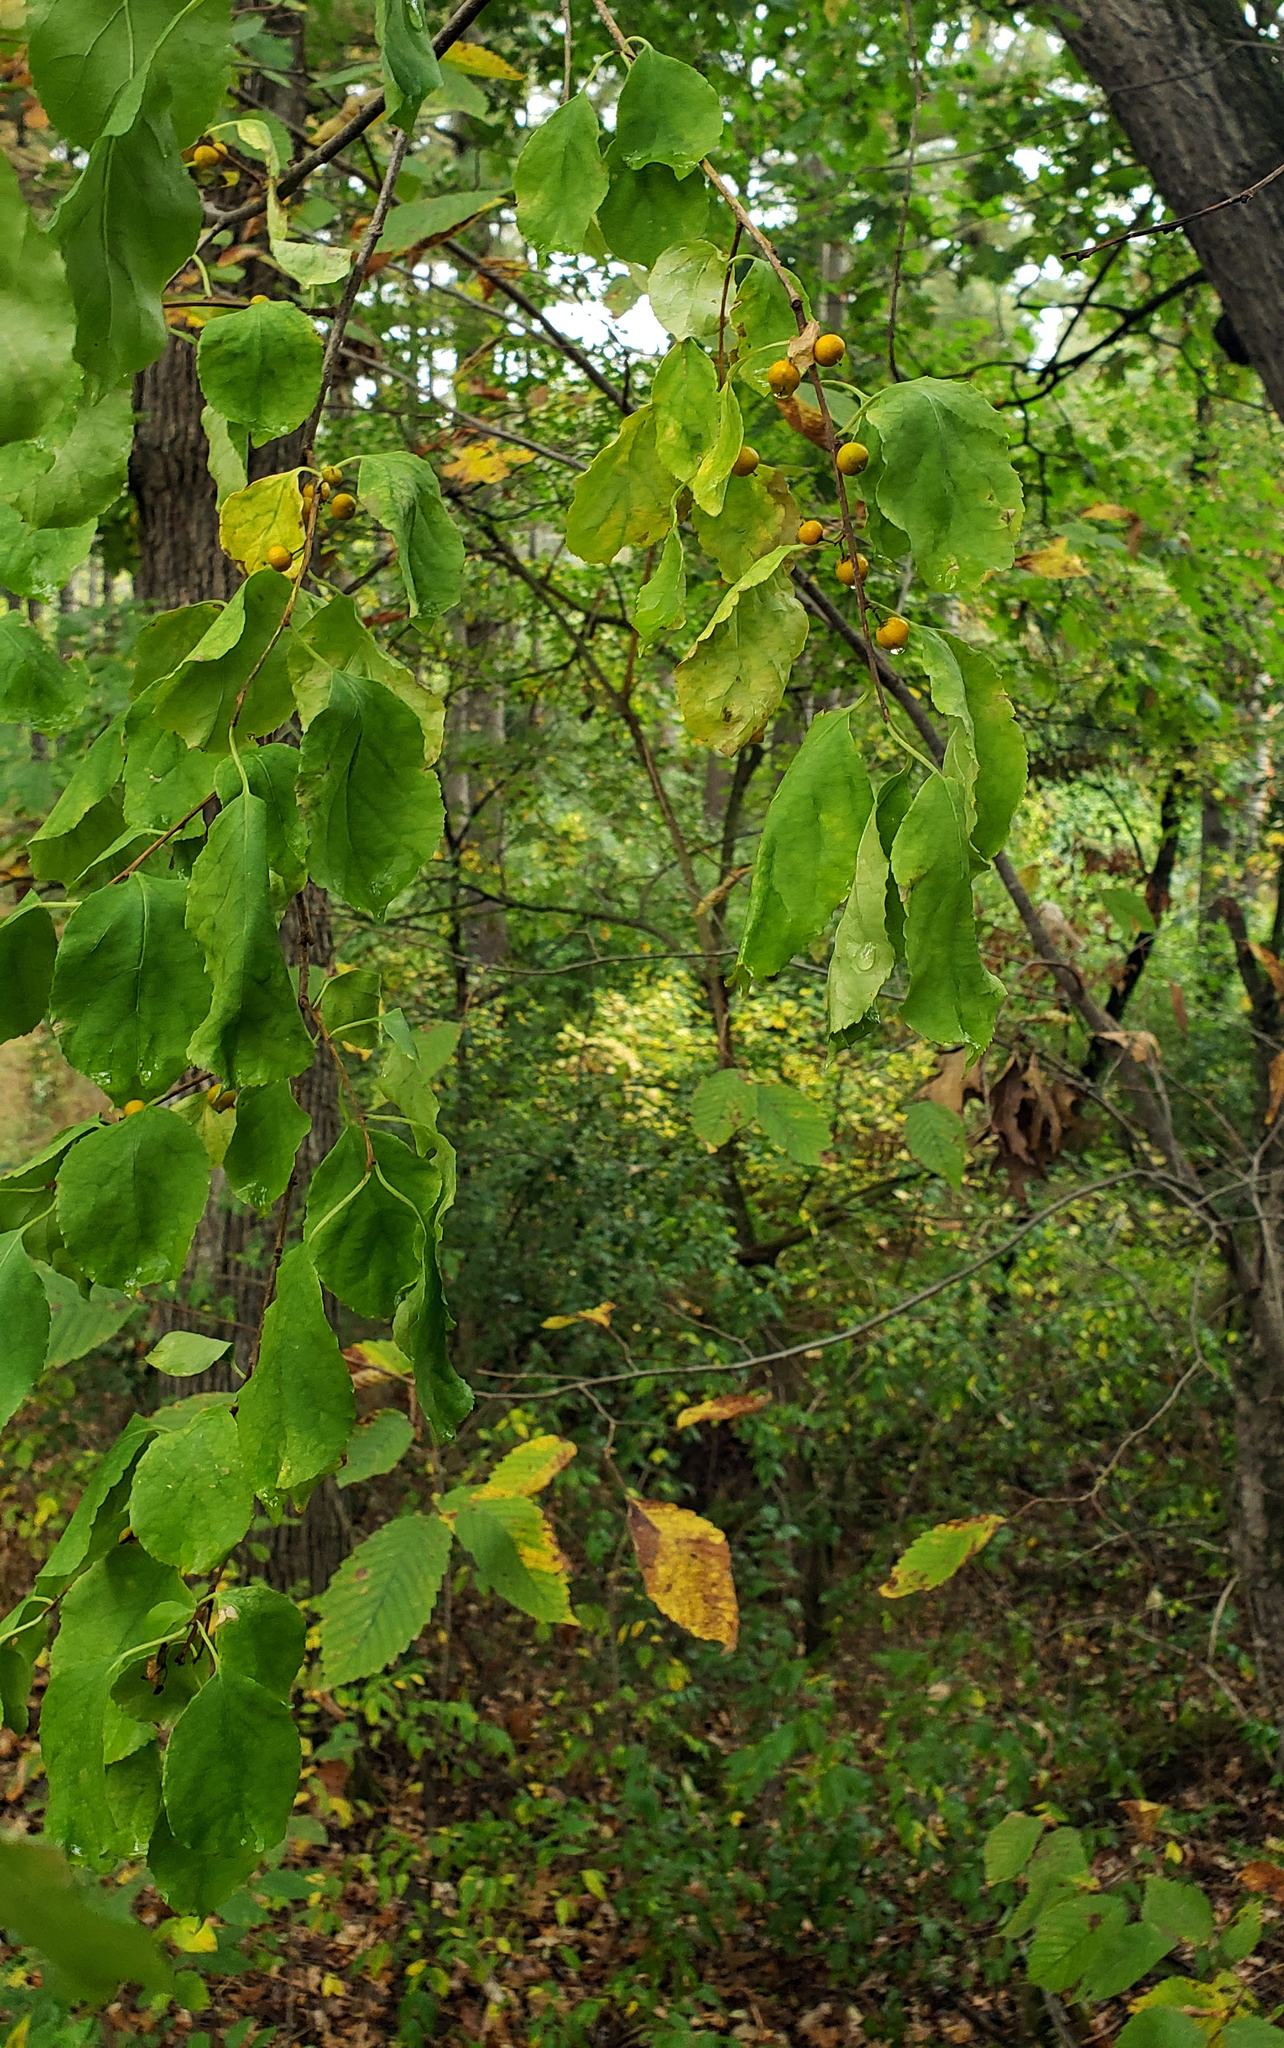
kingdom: Plantae
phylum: Tracheophyta
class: Magnoliopsida
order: Celastrales
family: Celastraceae
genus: Celastrus
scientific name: Celastrus orbiculatus
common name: Oriental bittersweet
